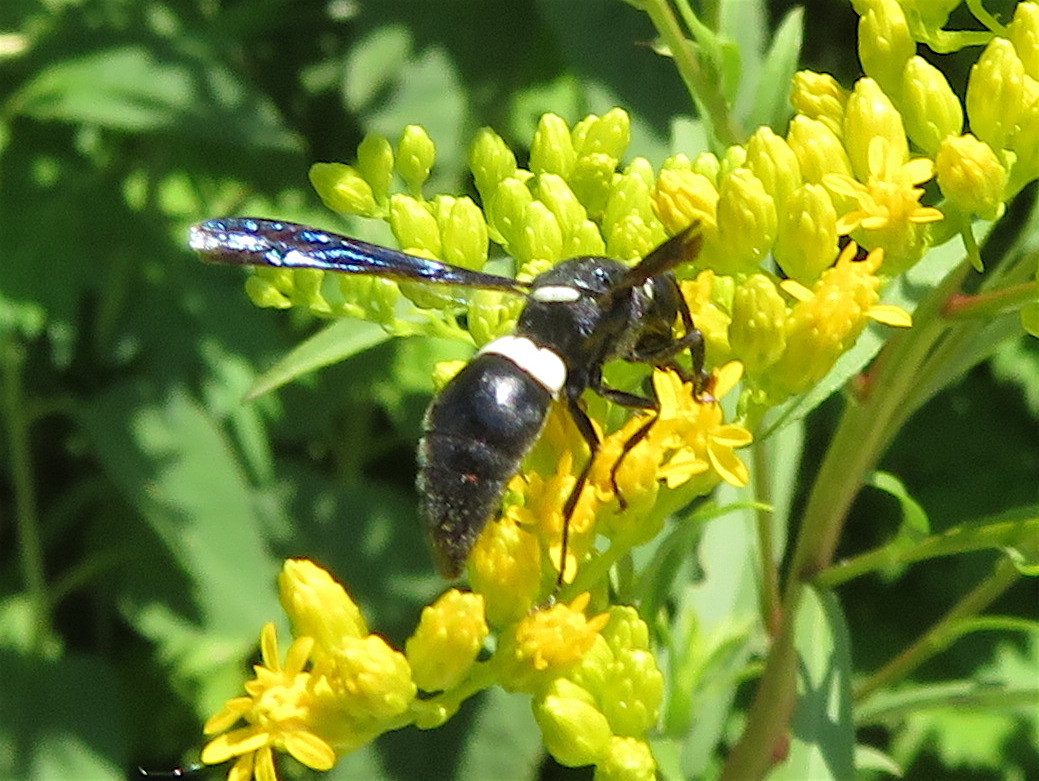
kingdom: Animalia
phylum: Arthropoda
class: Insecta
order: Hymenoptera
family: Eumenidae
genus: Monobia
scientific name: Monobia quadridens
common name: Four-toothed mason wasp
